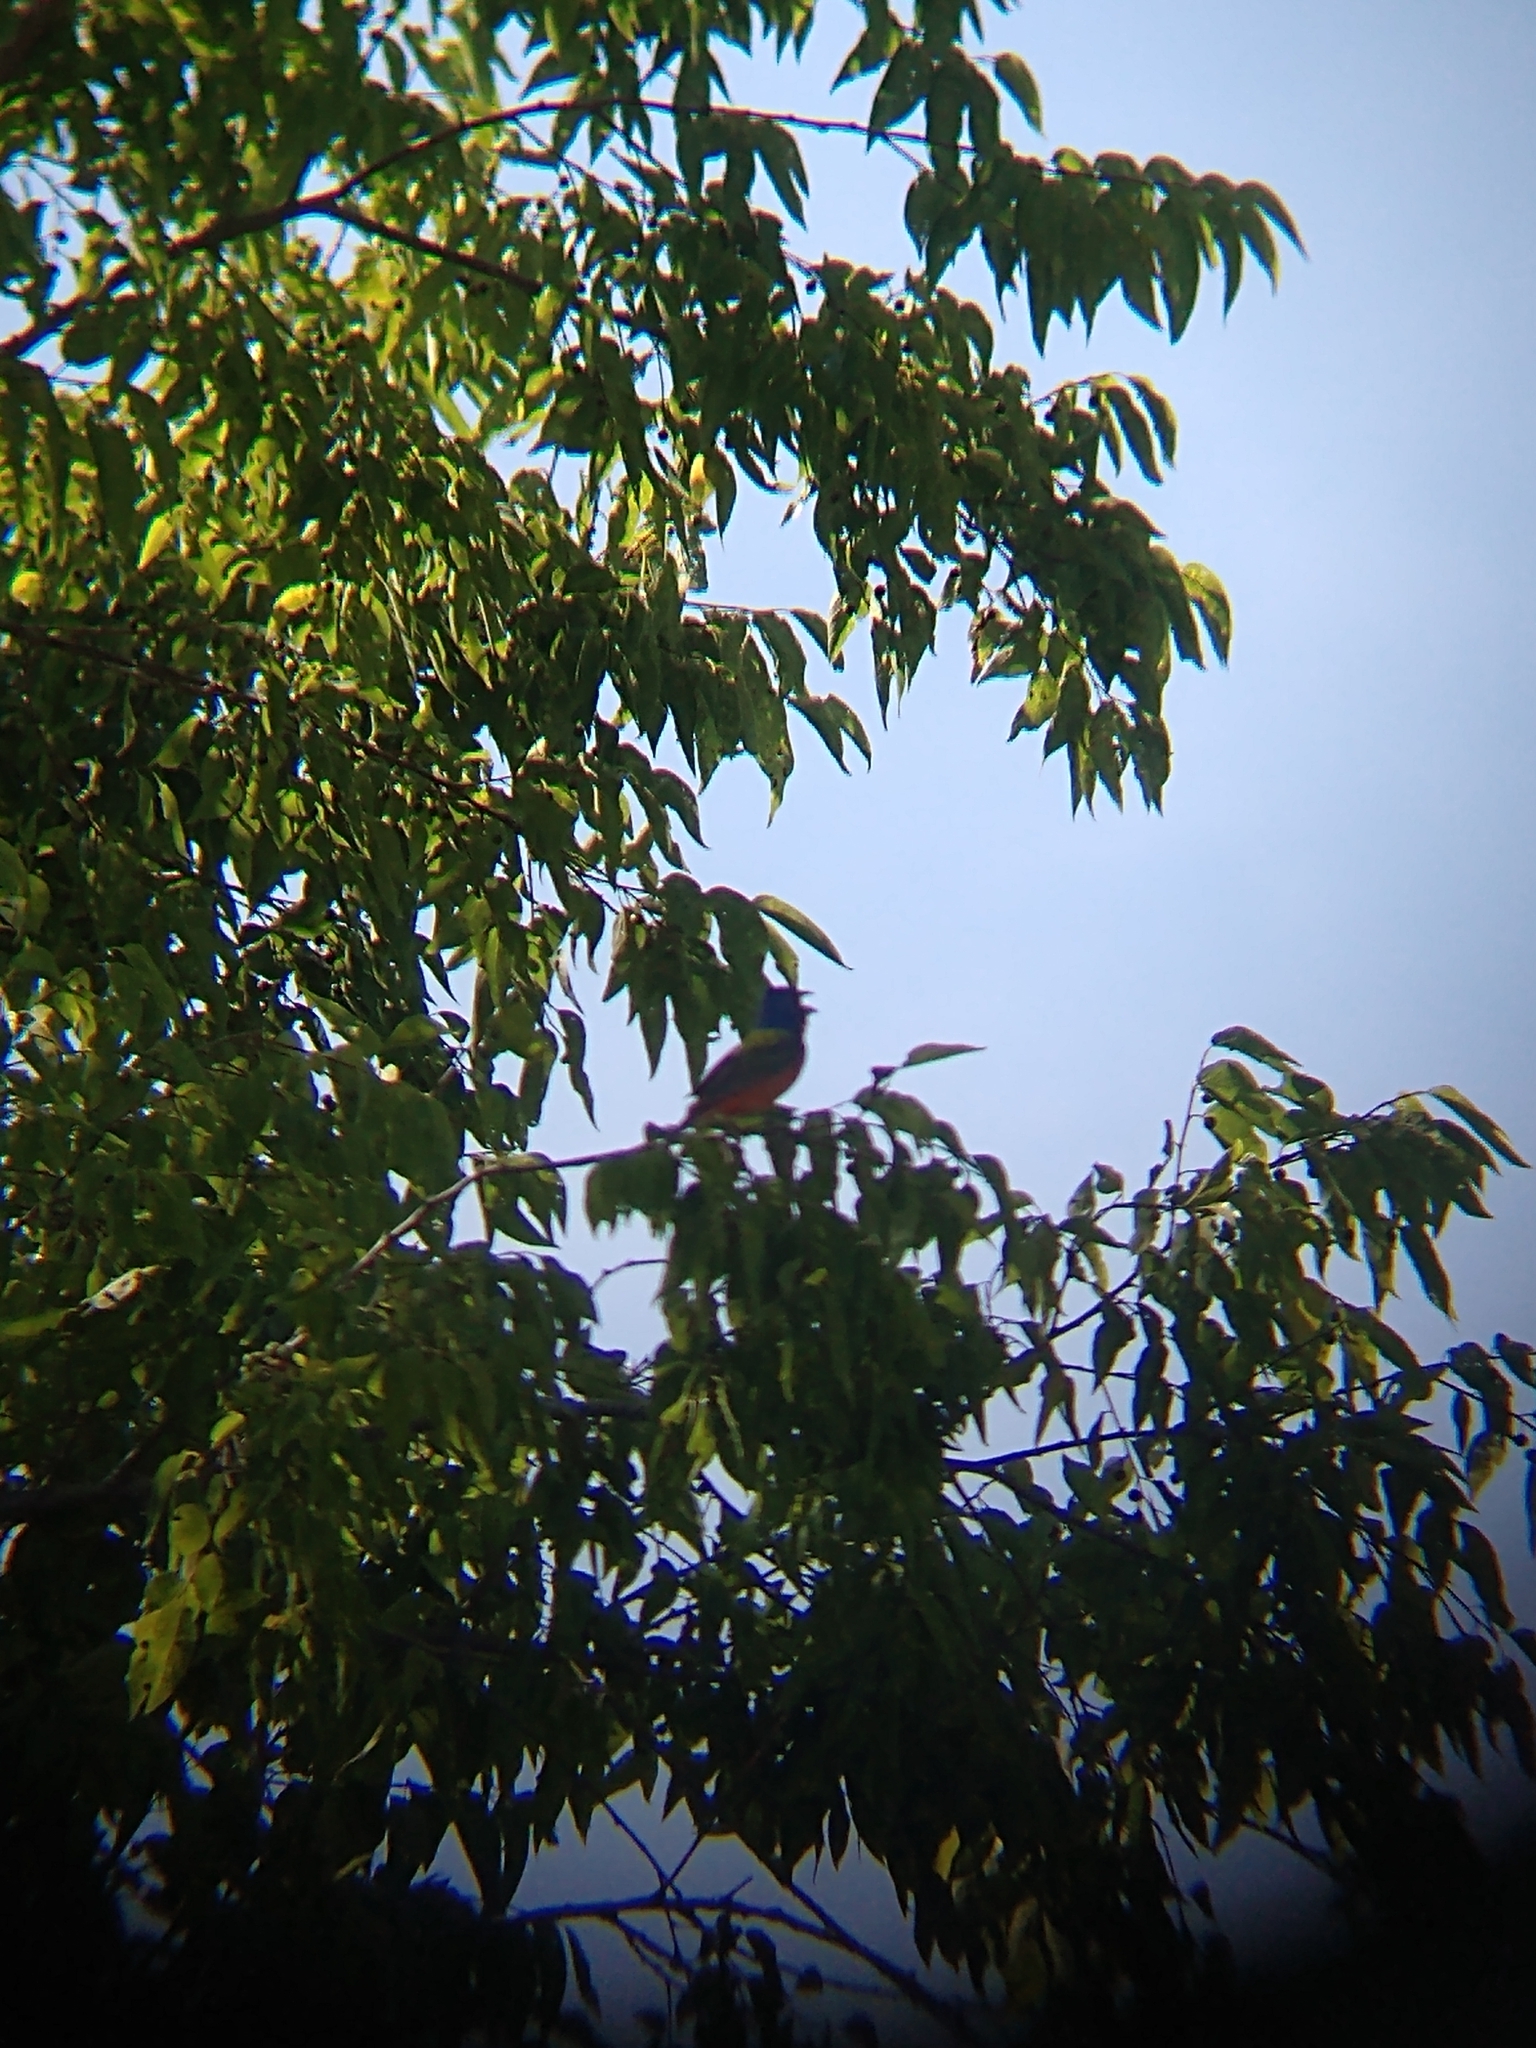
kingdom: Animalia
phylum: Chordata
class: Aves
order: Passeriformes
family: Cardinalidae
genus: Passerina
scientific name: Passerina ciris
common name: Painted bunting
